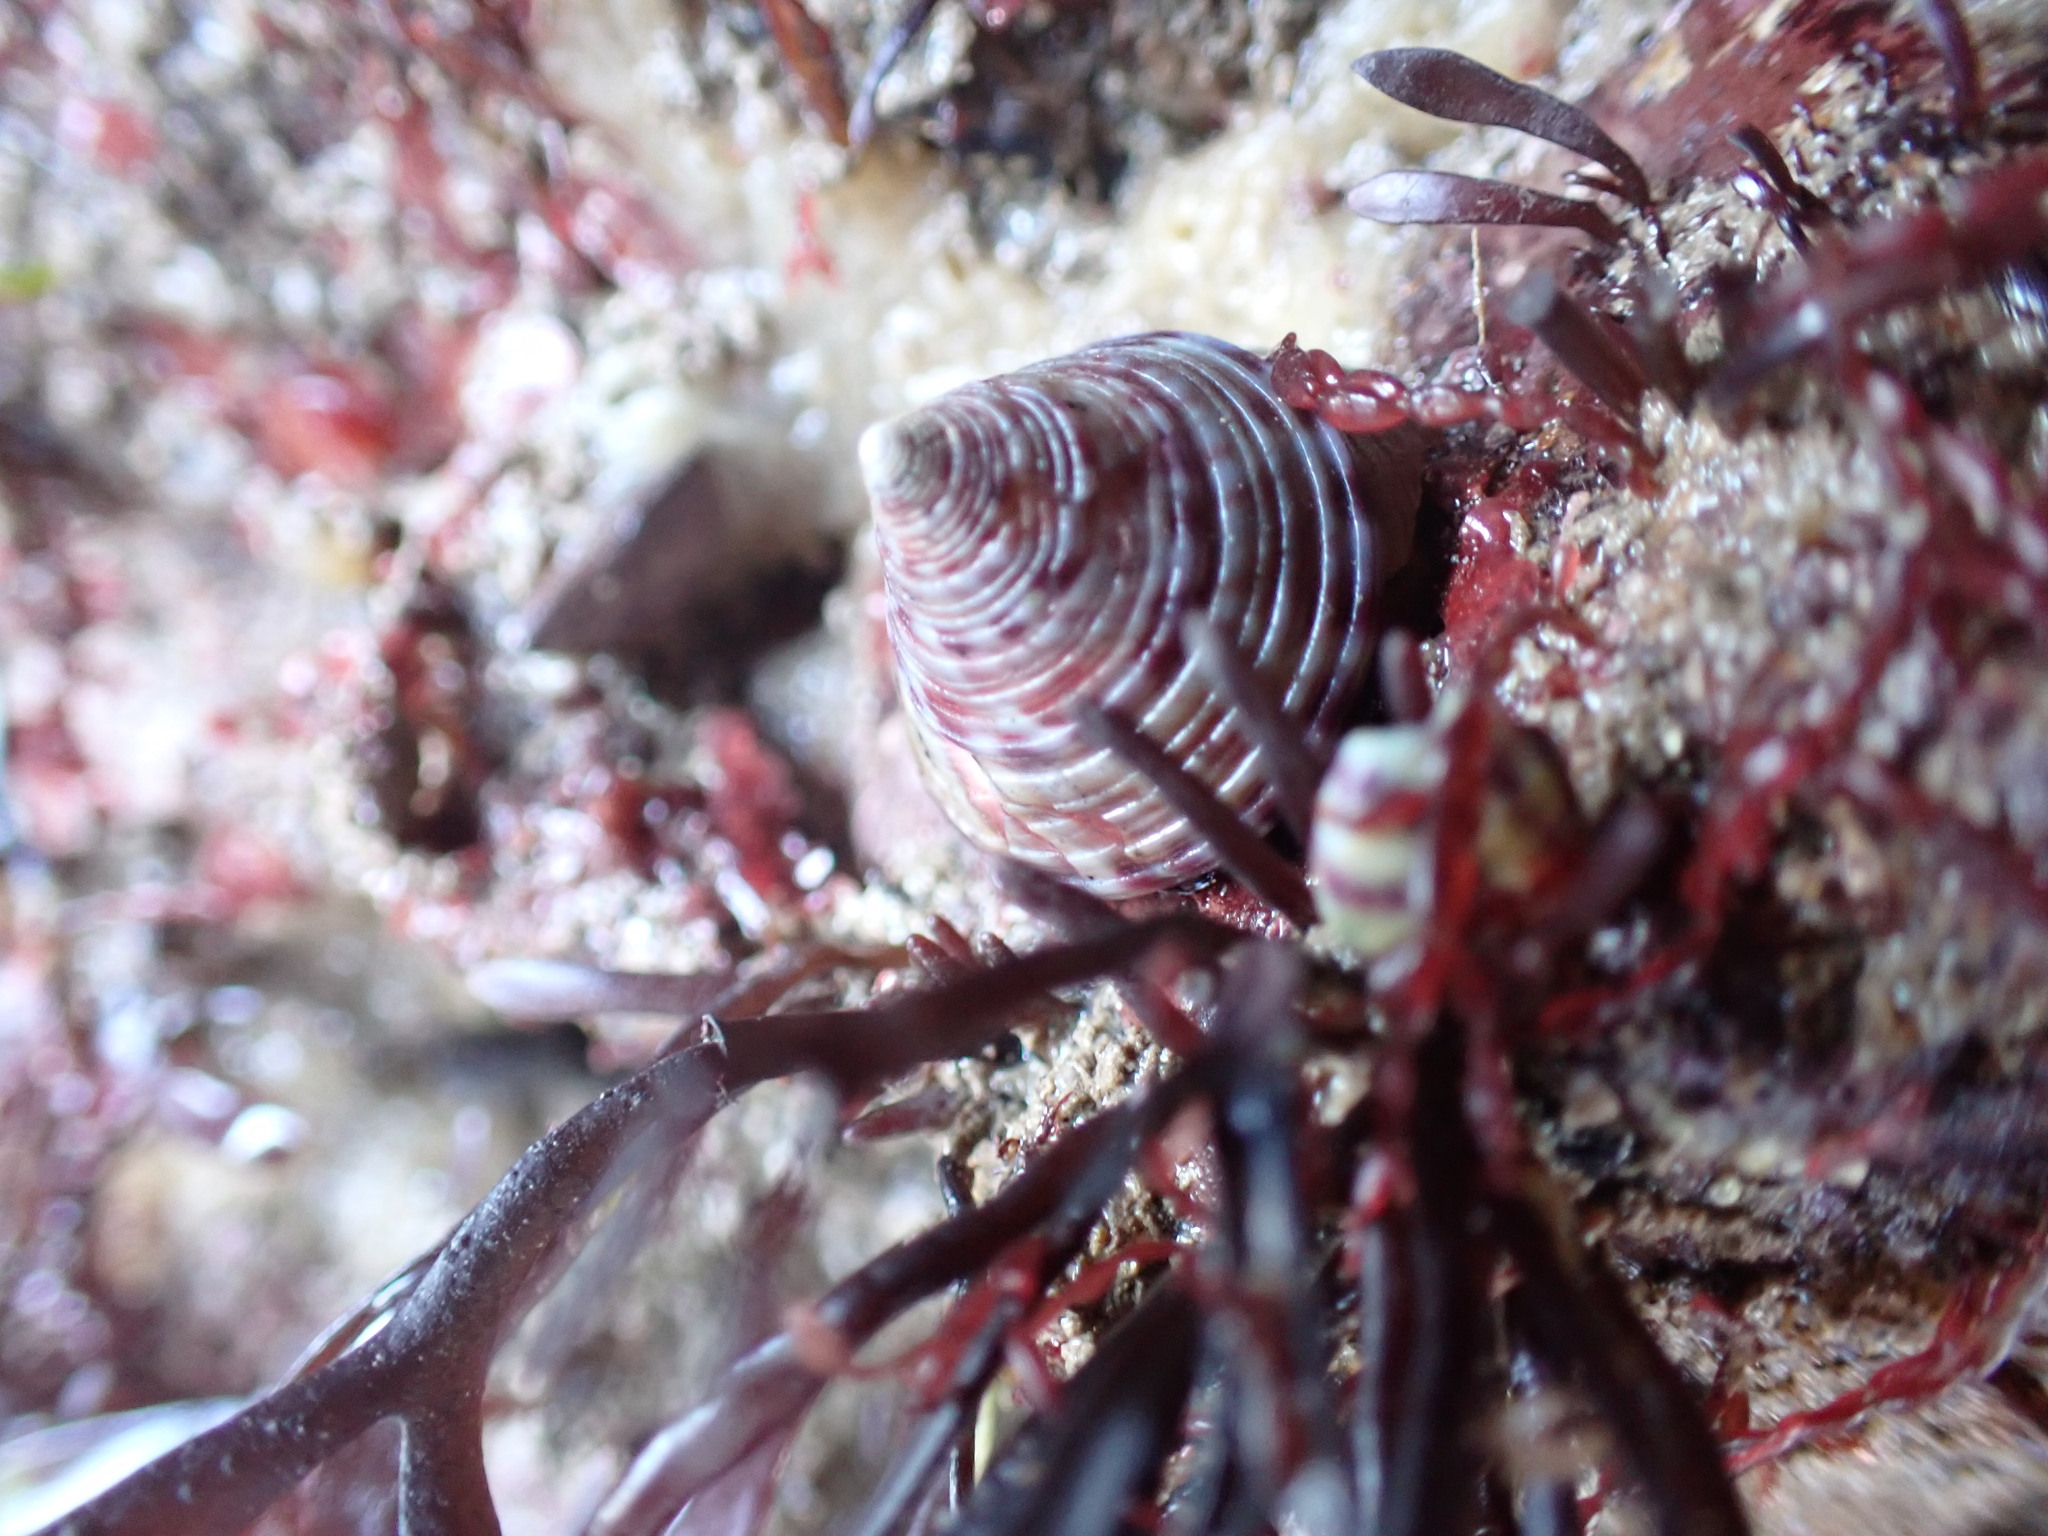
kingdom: Animalia
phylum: Mollusca
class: Gastropoda
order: Trochida
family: Calliostomatidae
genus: Calliostoma
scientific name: Calliostoma zizyphinum
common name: Painted top shell
